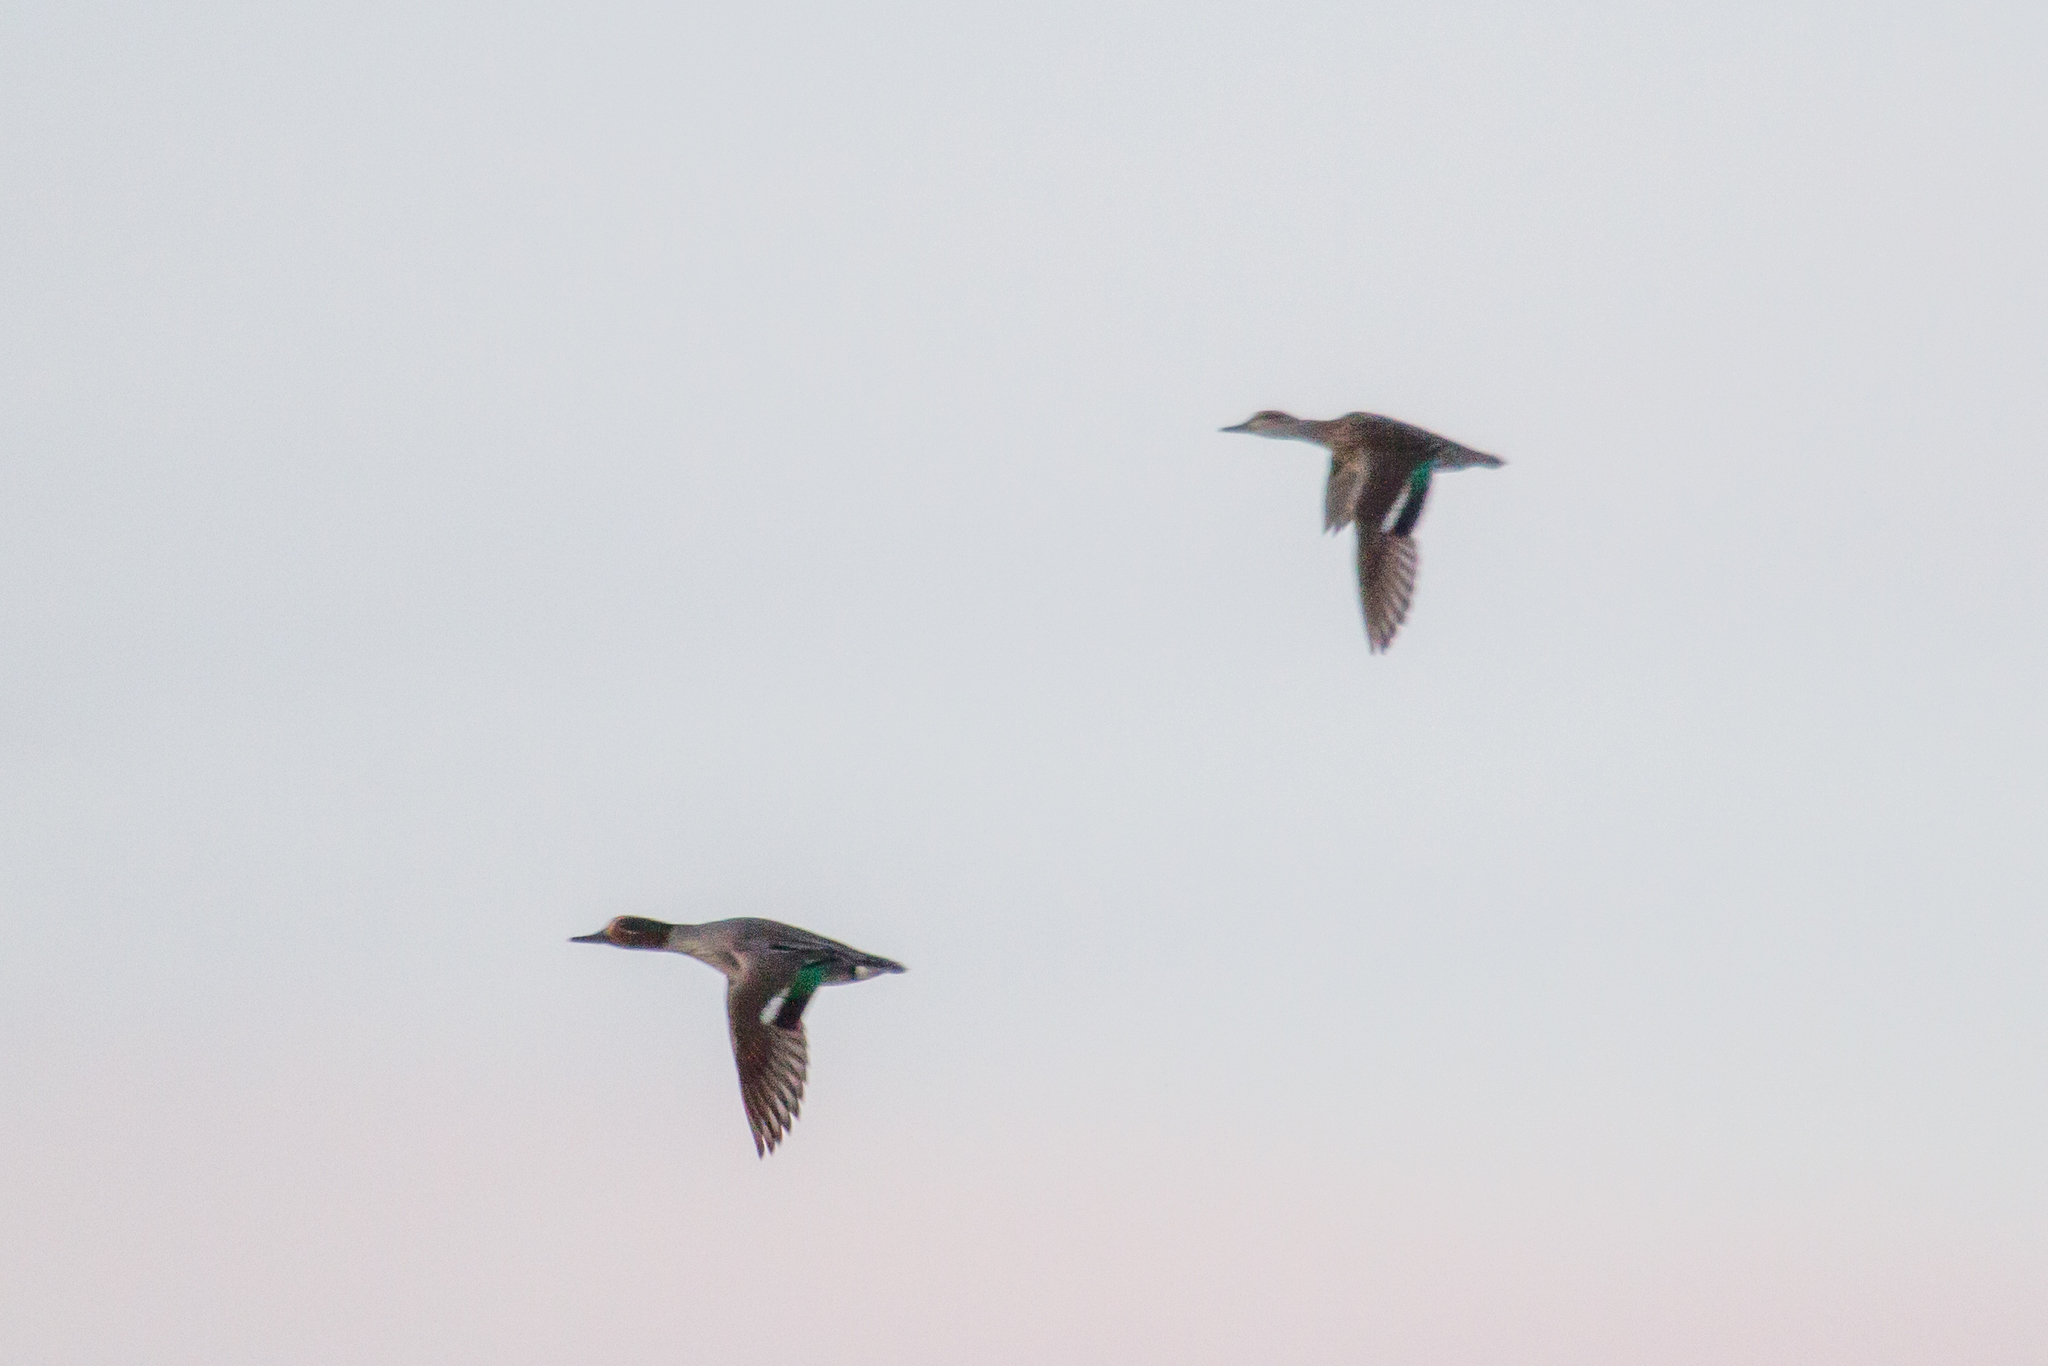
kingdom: Animalia
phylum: Chordata
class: Aves
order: Anseriformes
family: Anatidae
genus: Anas
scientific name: Anas crecca
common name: Eurasian teal
